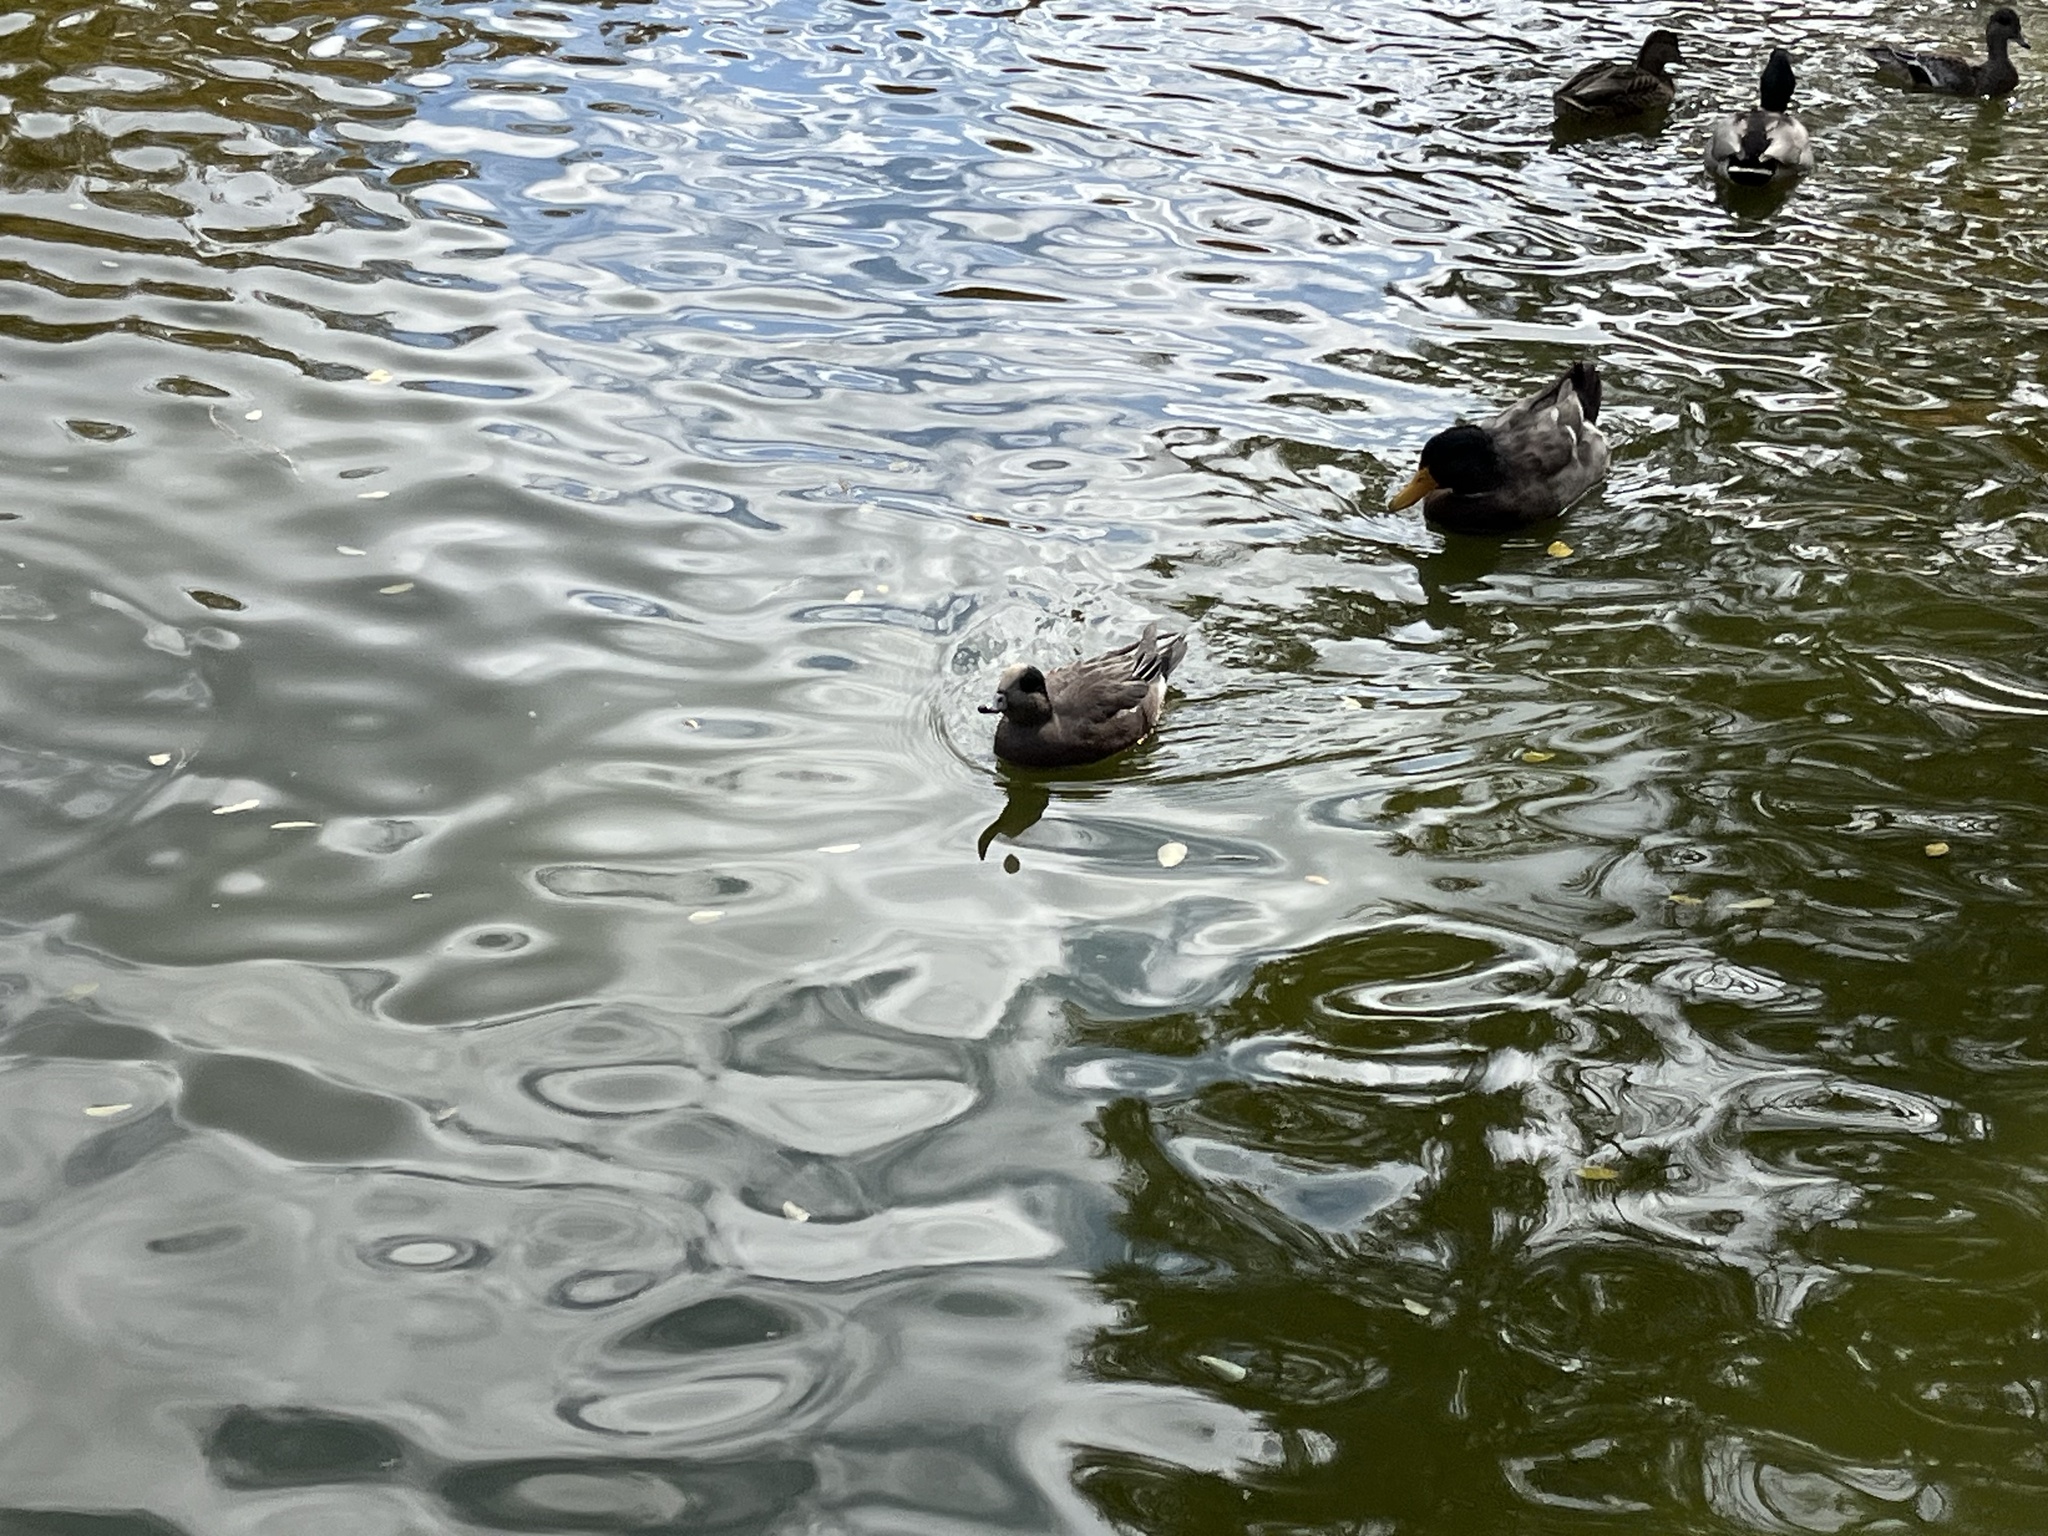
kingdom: Animalia
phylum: Chordata
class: Aves
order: Anseriformes
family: Anatidae
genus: Mareca
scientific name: Mareca americana
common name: American wigeon
